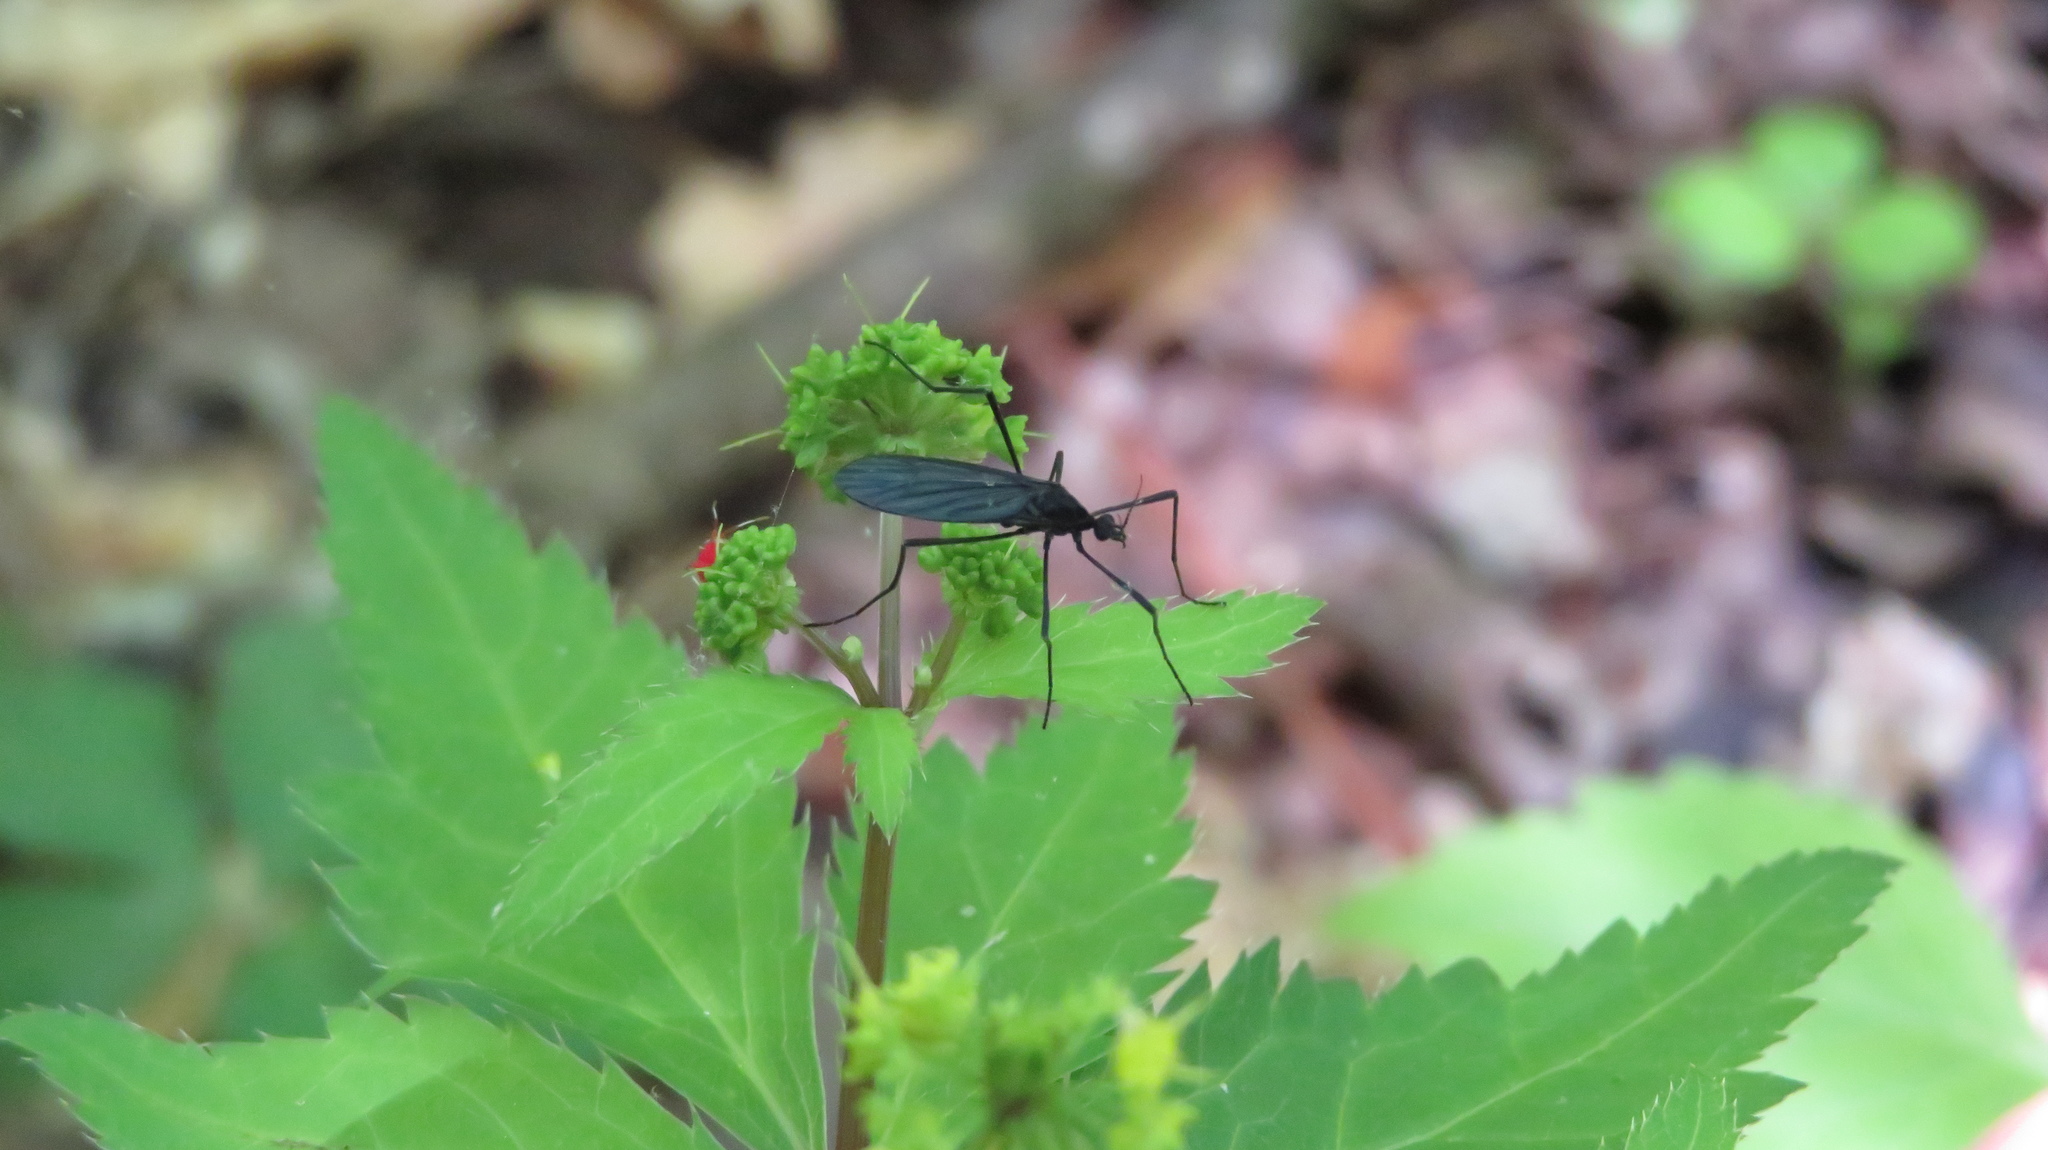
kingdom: Animalia
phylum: Arthropoda
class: Insecta
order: Diptera
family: Limoniidae
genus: Eugnophomyia
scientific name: Eugnophomyia luctuosa
